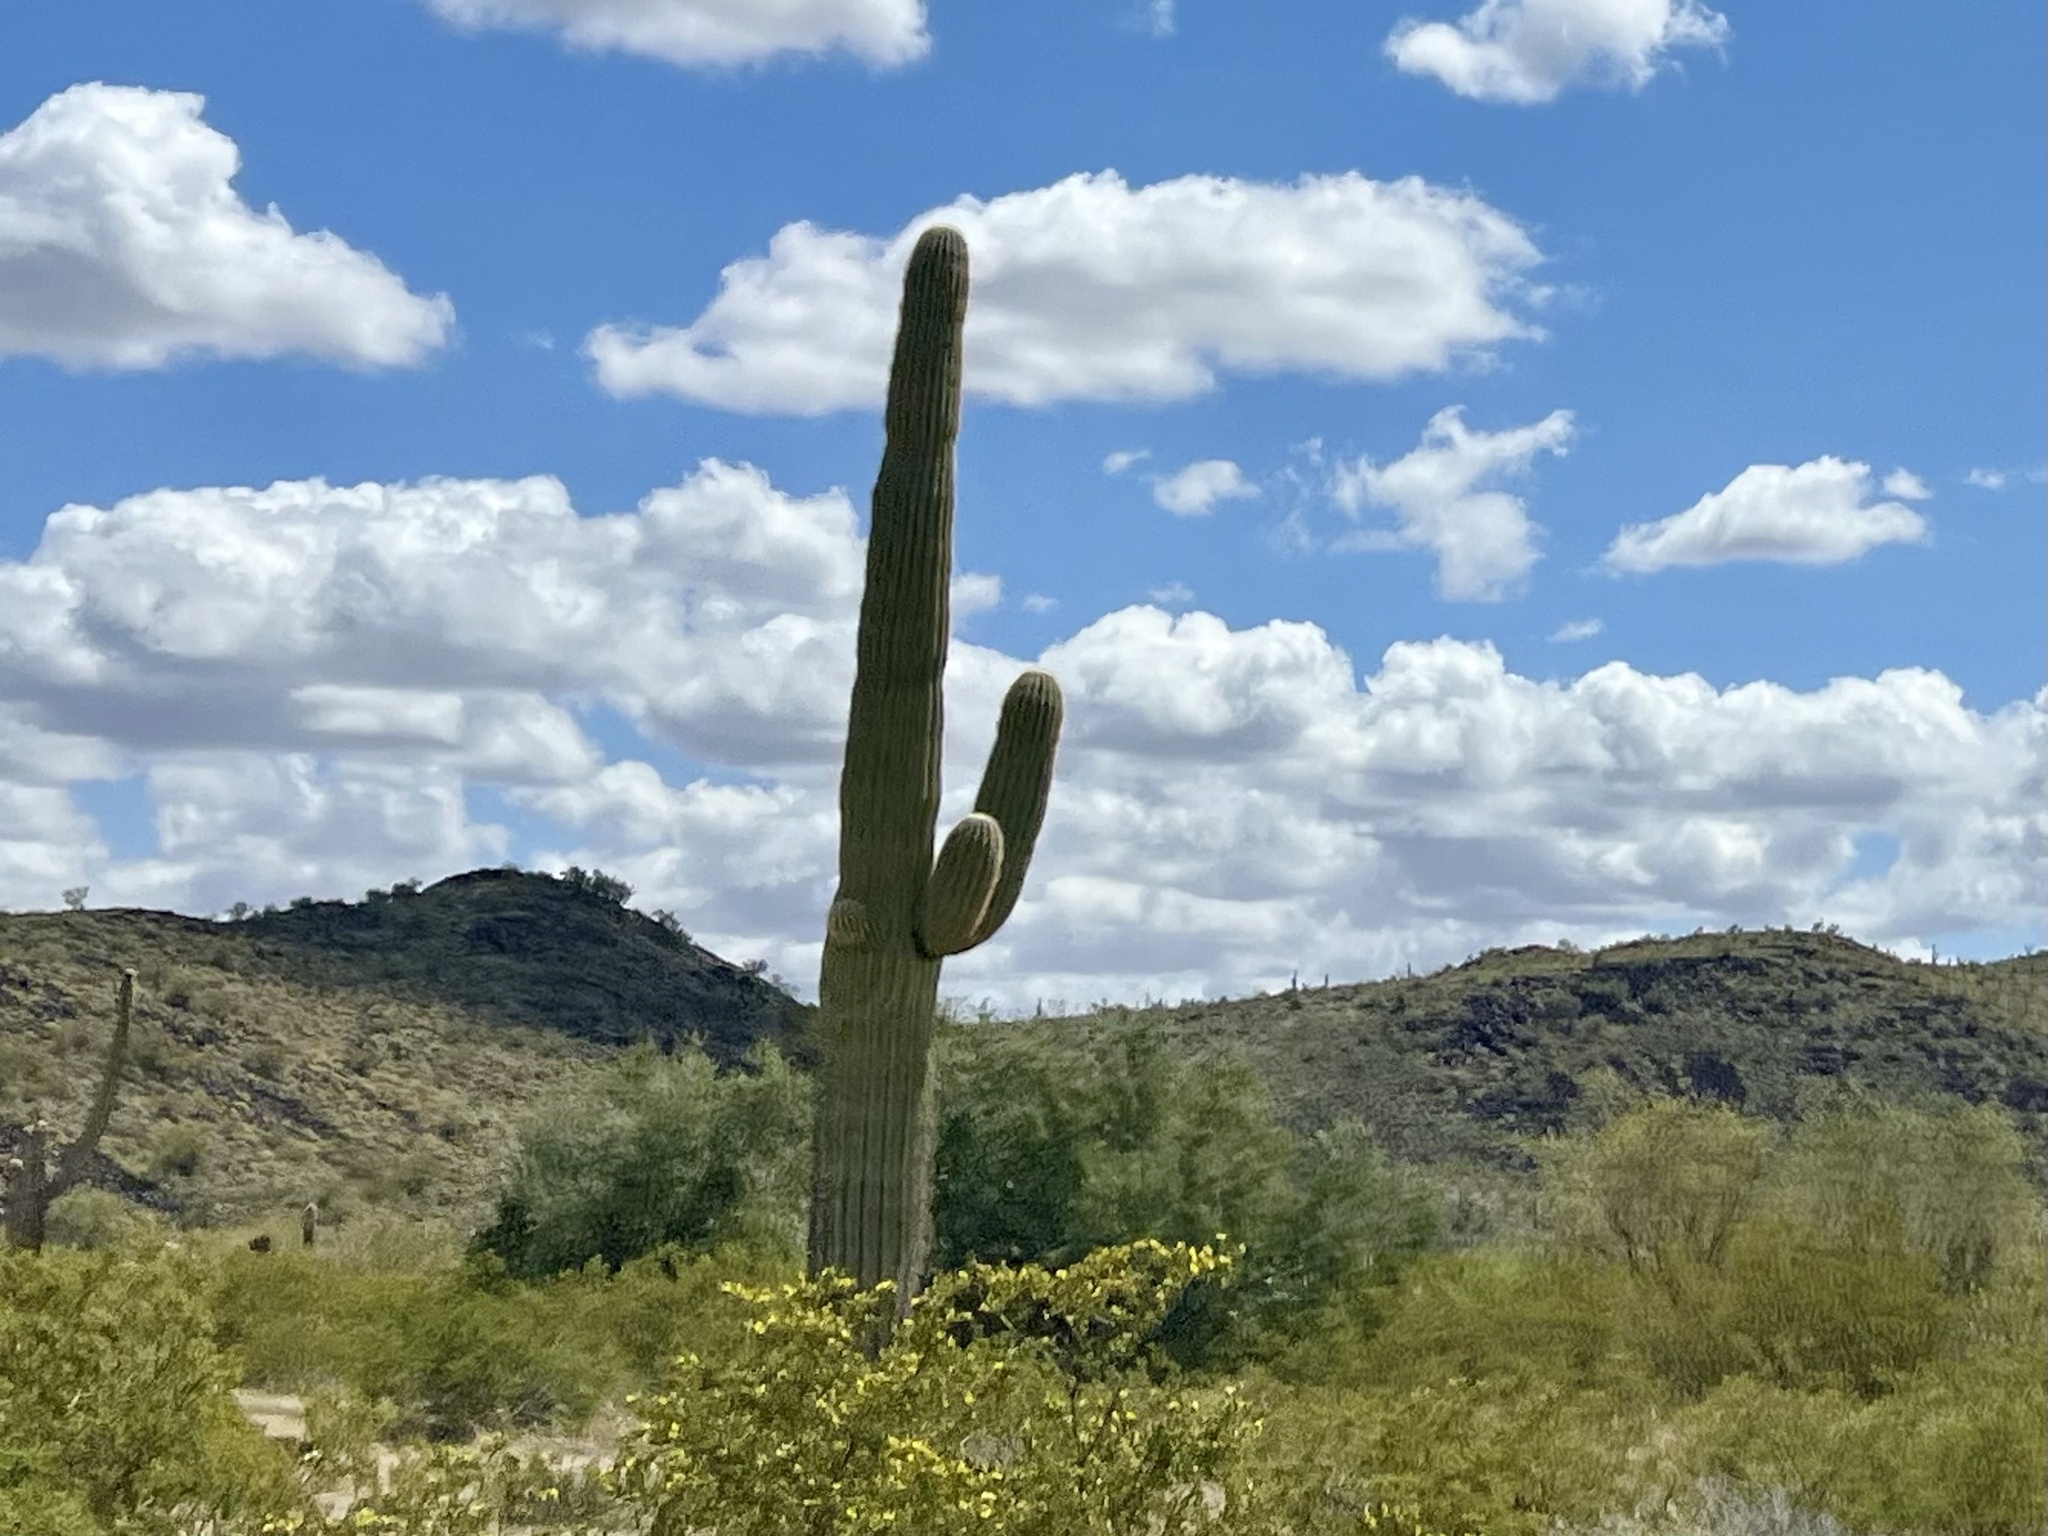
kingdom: Plantae
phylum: Tracheophyta
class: Magnoliopsida
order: Caryophyllales
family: Cactaceae
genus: Carnegiea
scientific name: Carnegiea gigantea
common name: Saguaro
